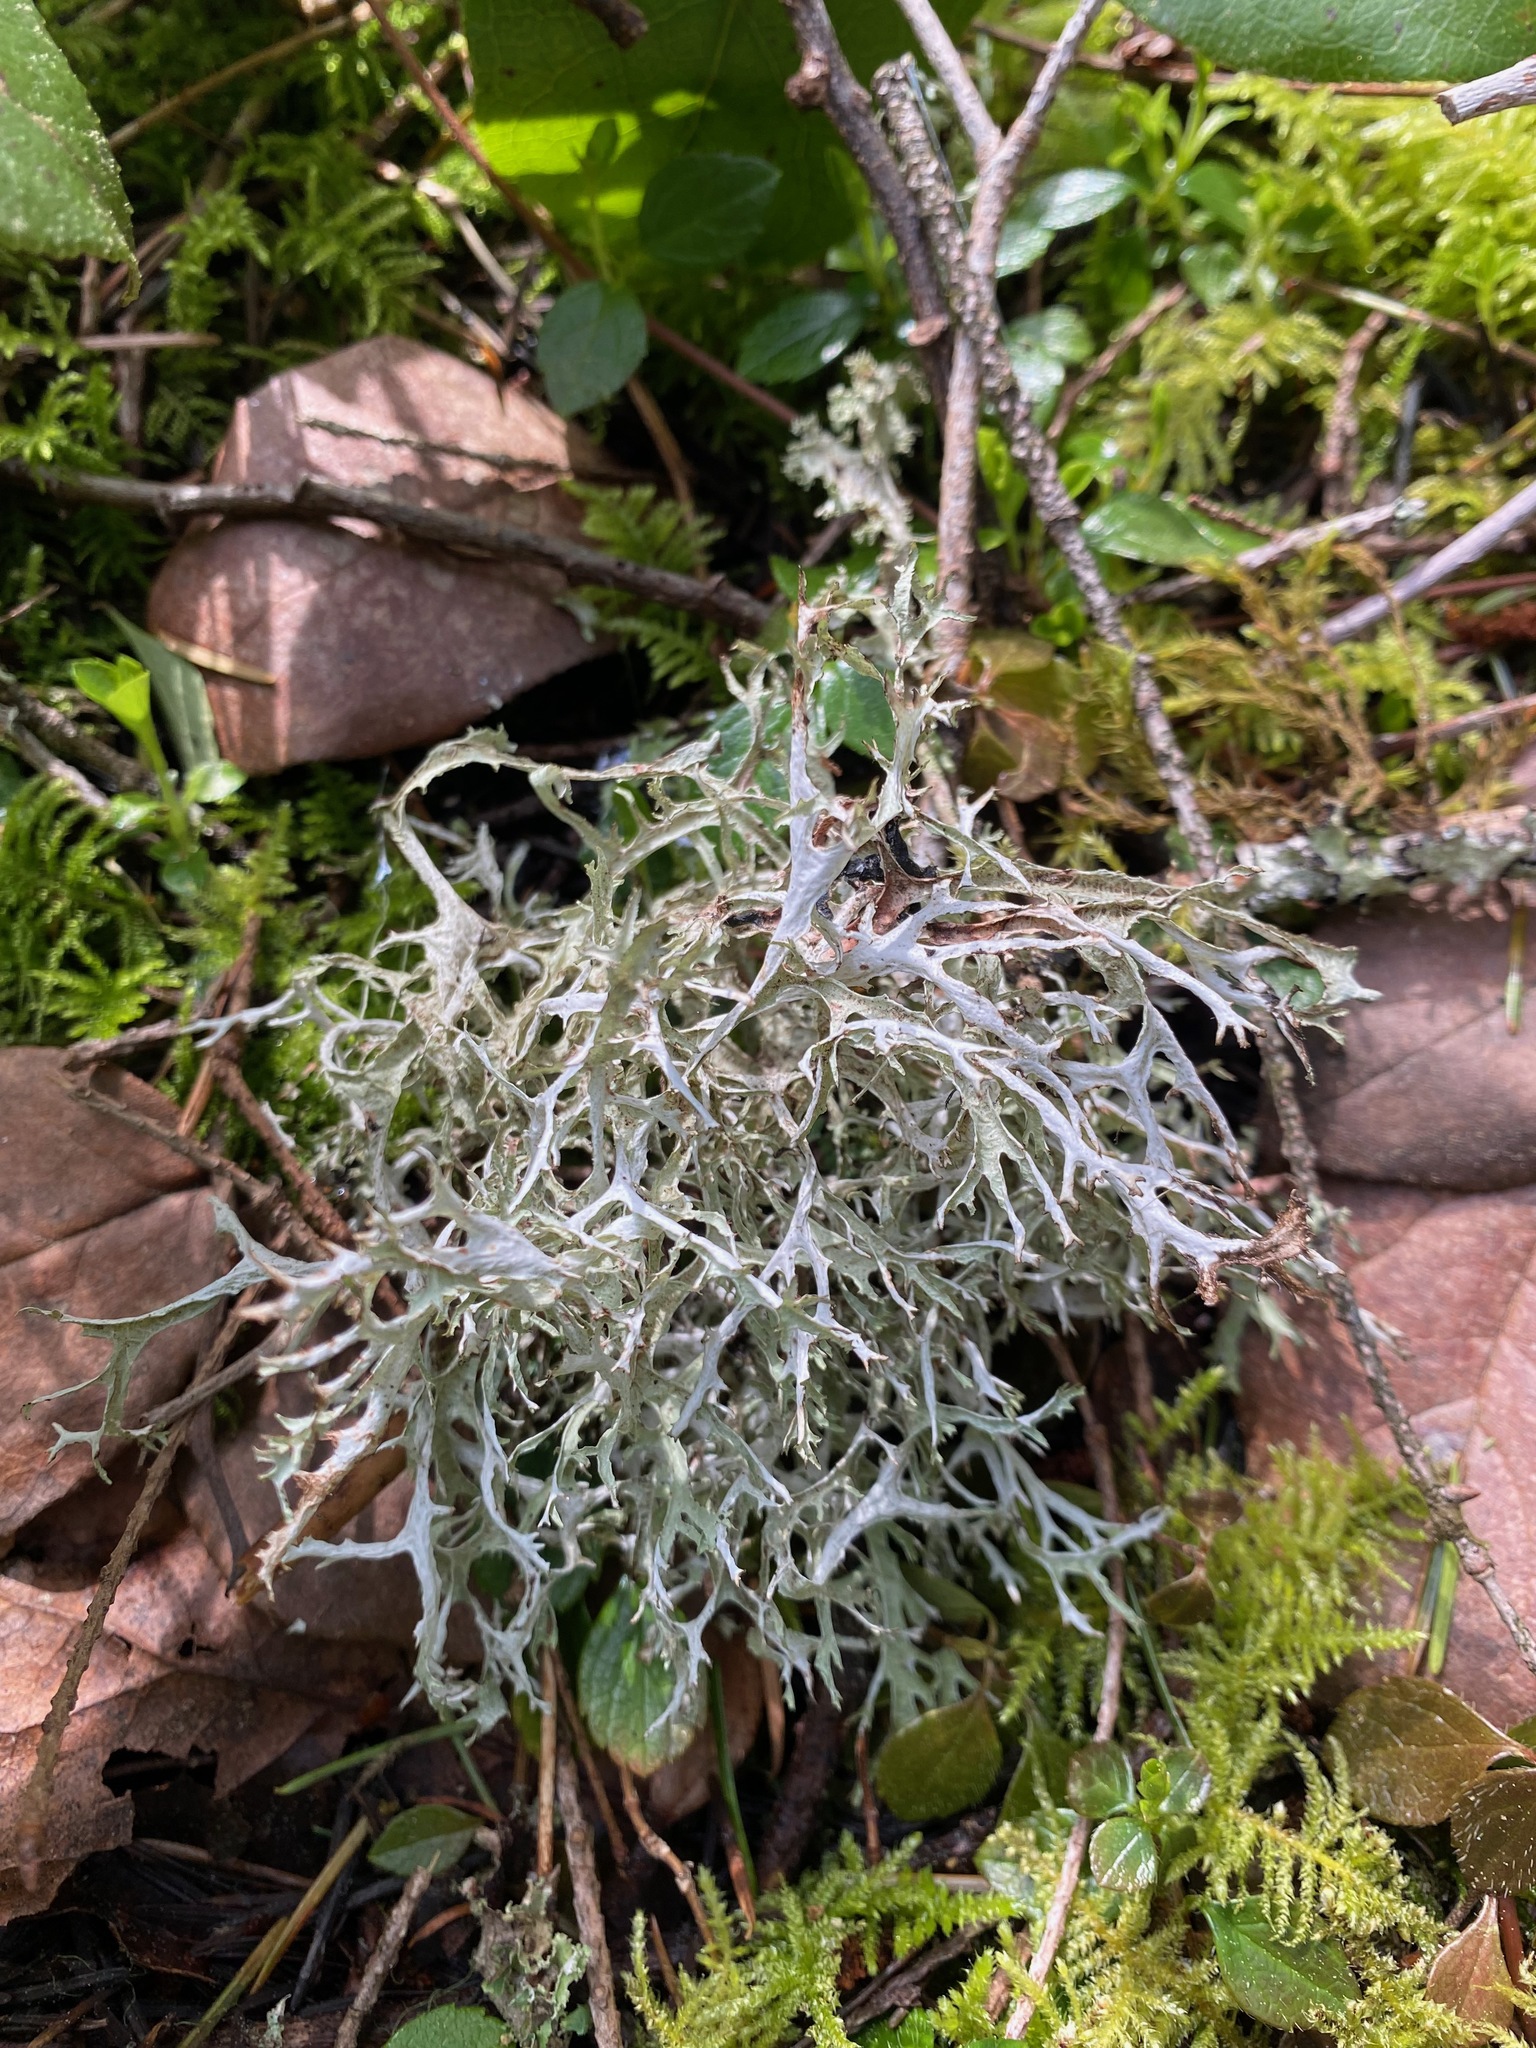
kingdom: Fungi
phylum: Ascomycota
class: Lecanoromycetes
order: Lecanorales
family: Parmeliaceae
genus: Evernia
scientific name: Evernia prunastri
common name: Oak moss
